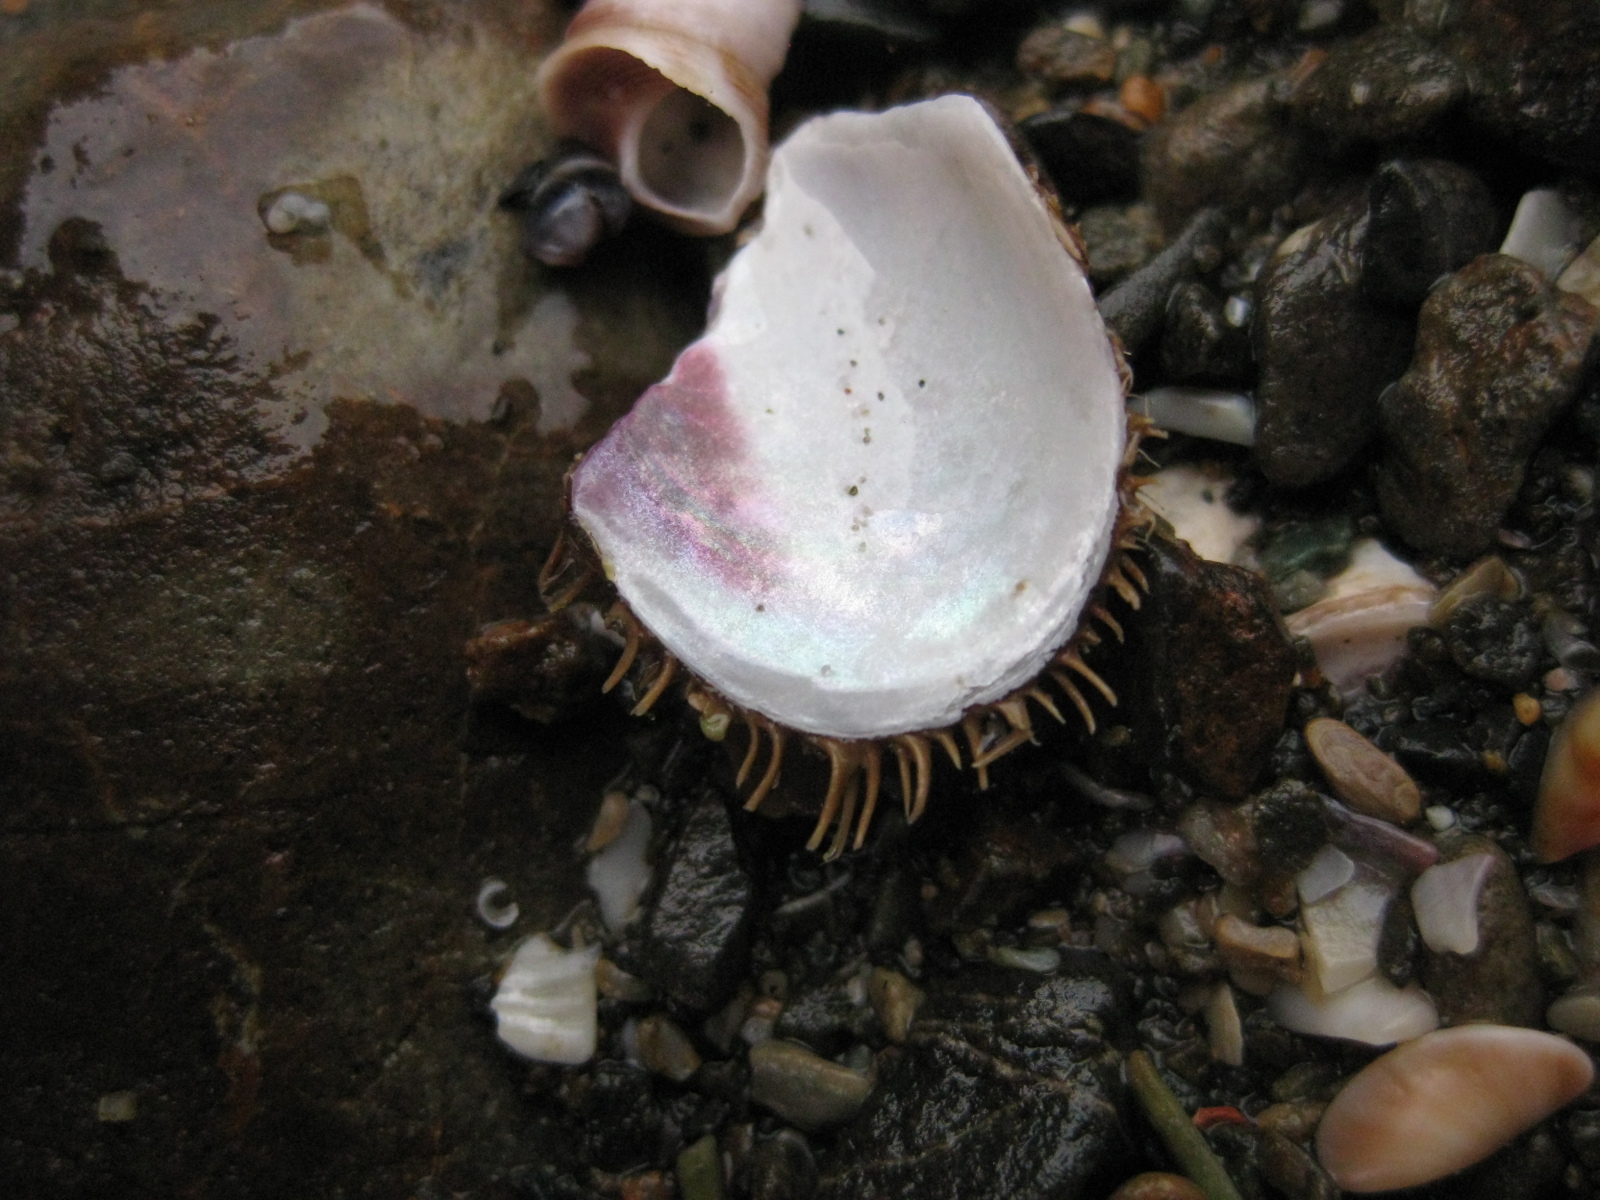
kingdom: Animalia
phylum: Mollusca
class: Bivalvia
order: Mytilida
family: Mytilidae
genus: Modiolus
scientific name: Modiolus areolatus
